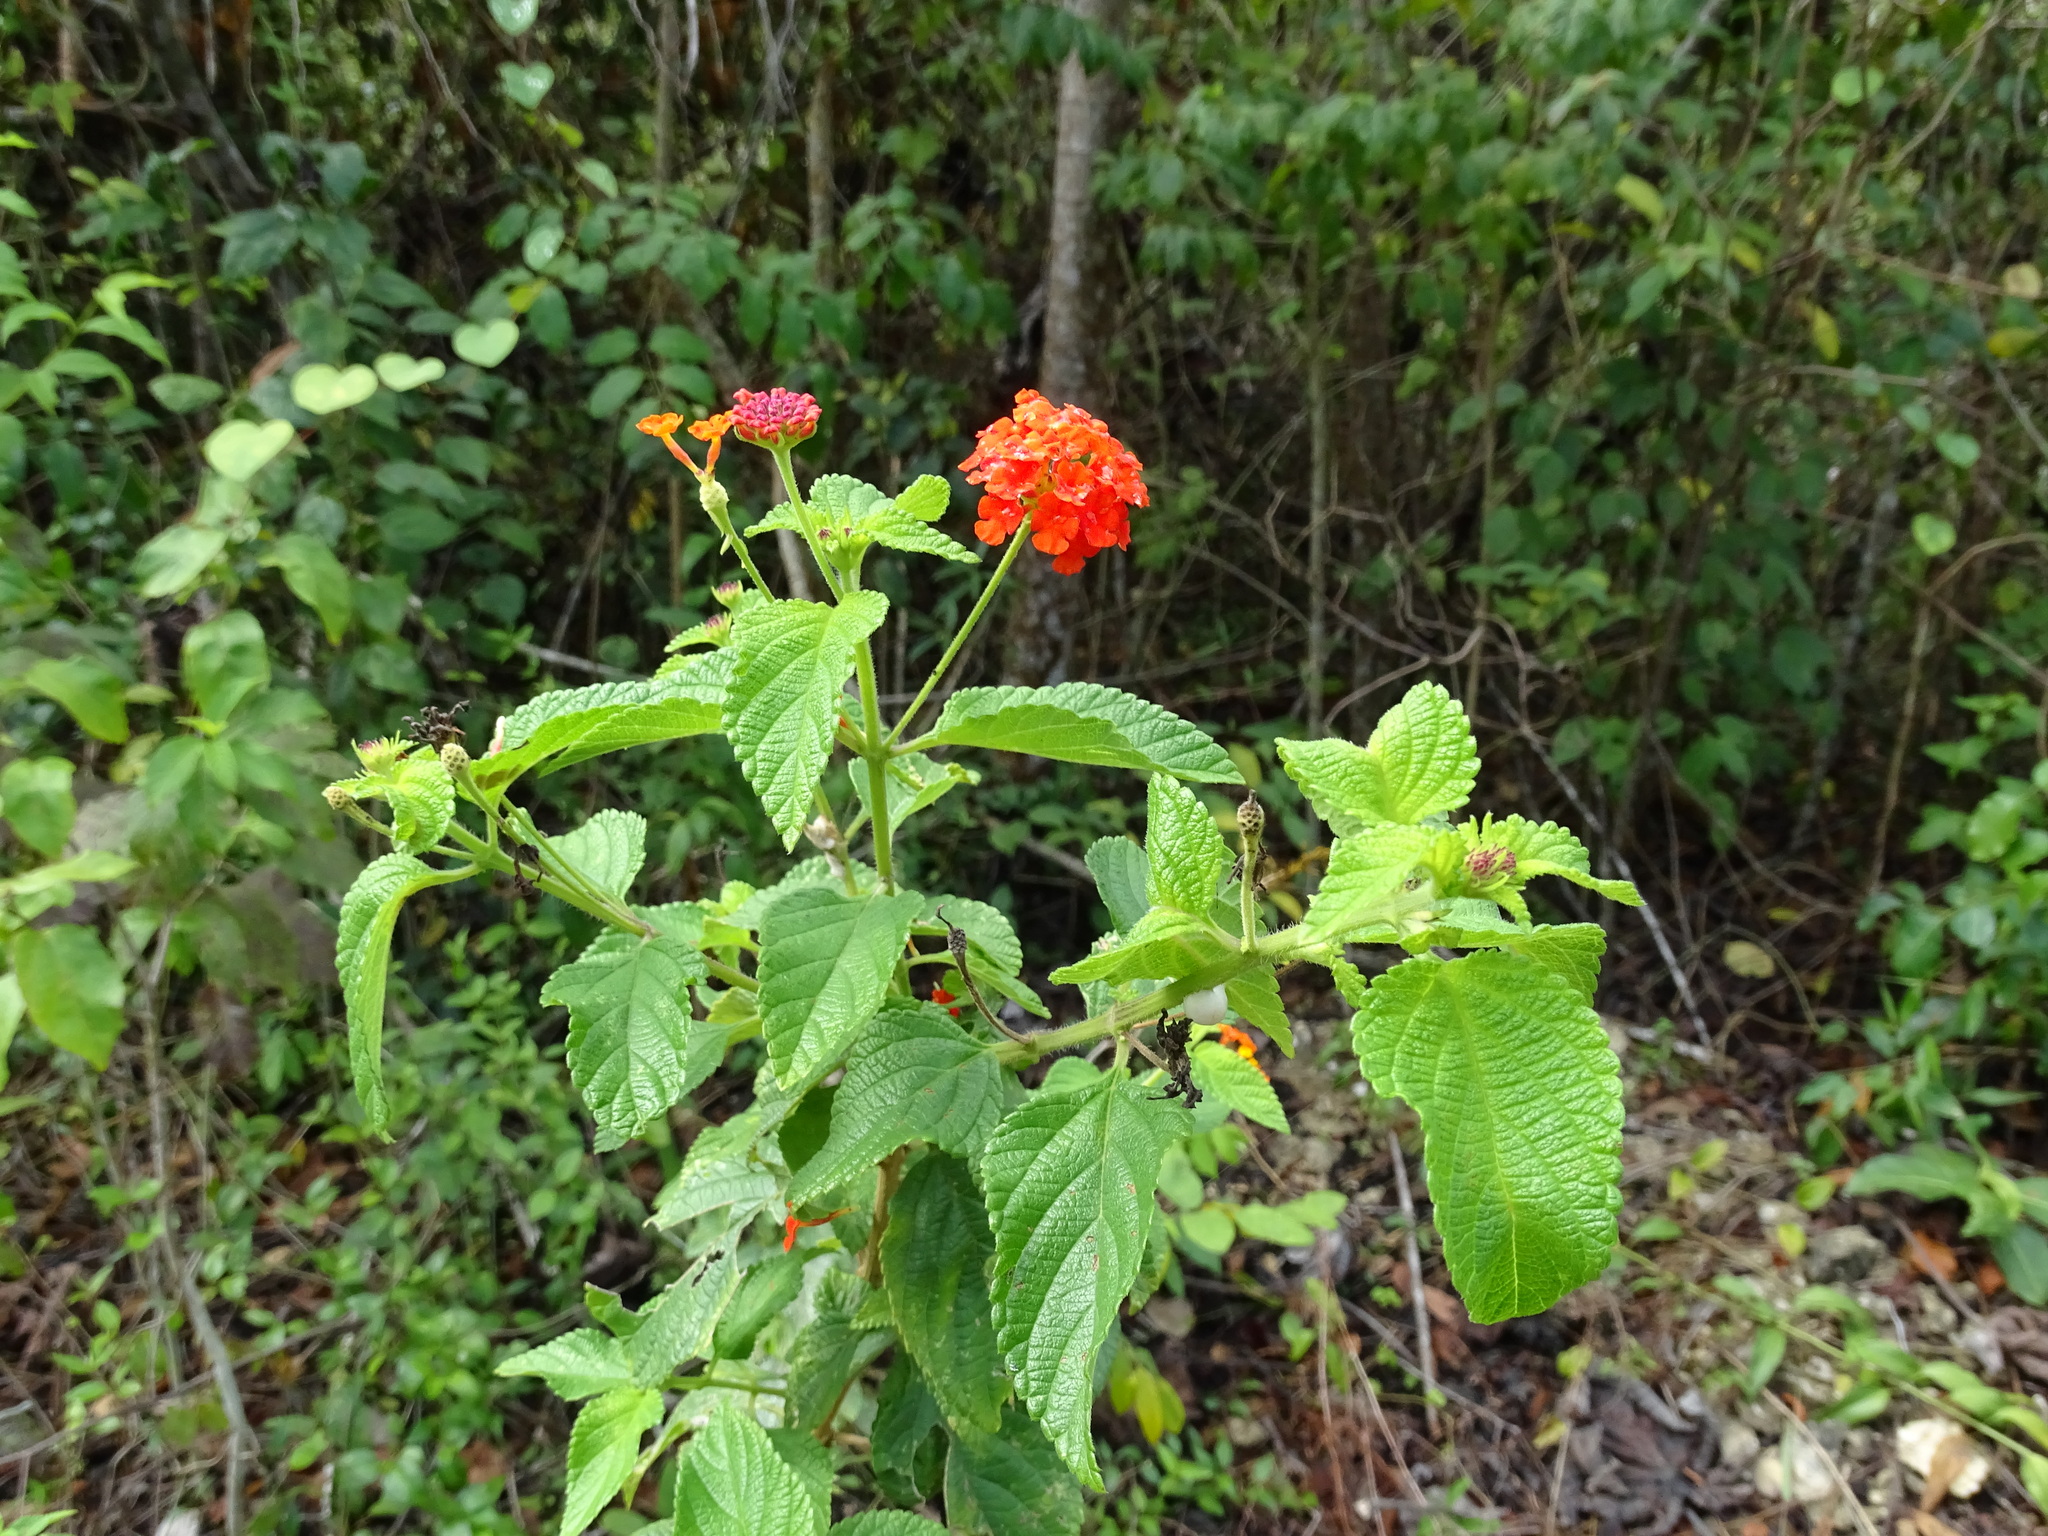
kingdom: Plantae
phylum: Tracheophyta
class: Magnoliopsida
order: Lamiales
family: Verbenaceae
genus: Lantana
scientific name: Lantana camara
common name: Lantana
